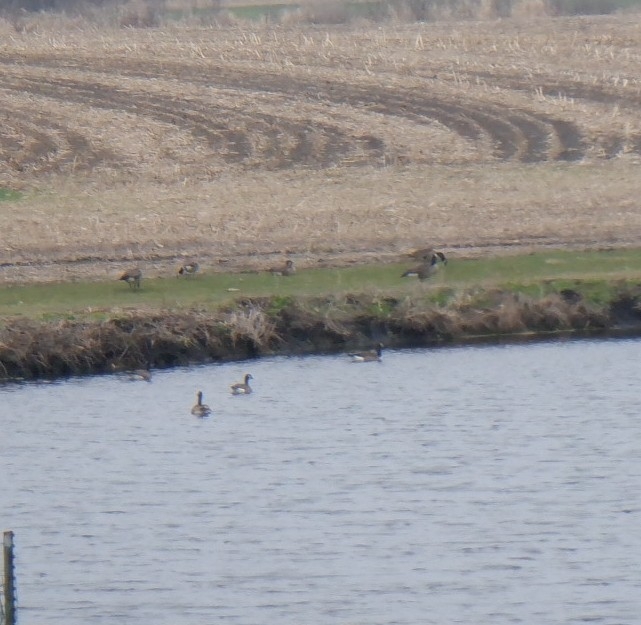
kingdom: Animalia
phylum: Chordata
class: Aves
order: Anseriformes
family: Anatidae
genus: Branta
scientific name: Branta canadensis
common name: Canada goose
